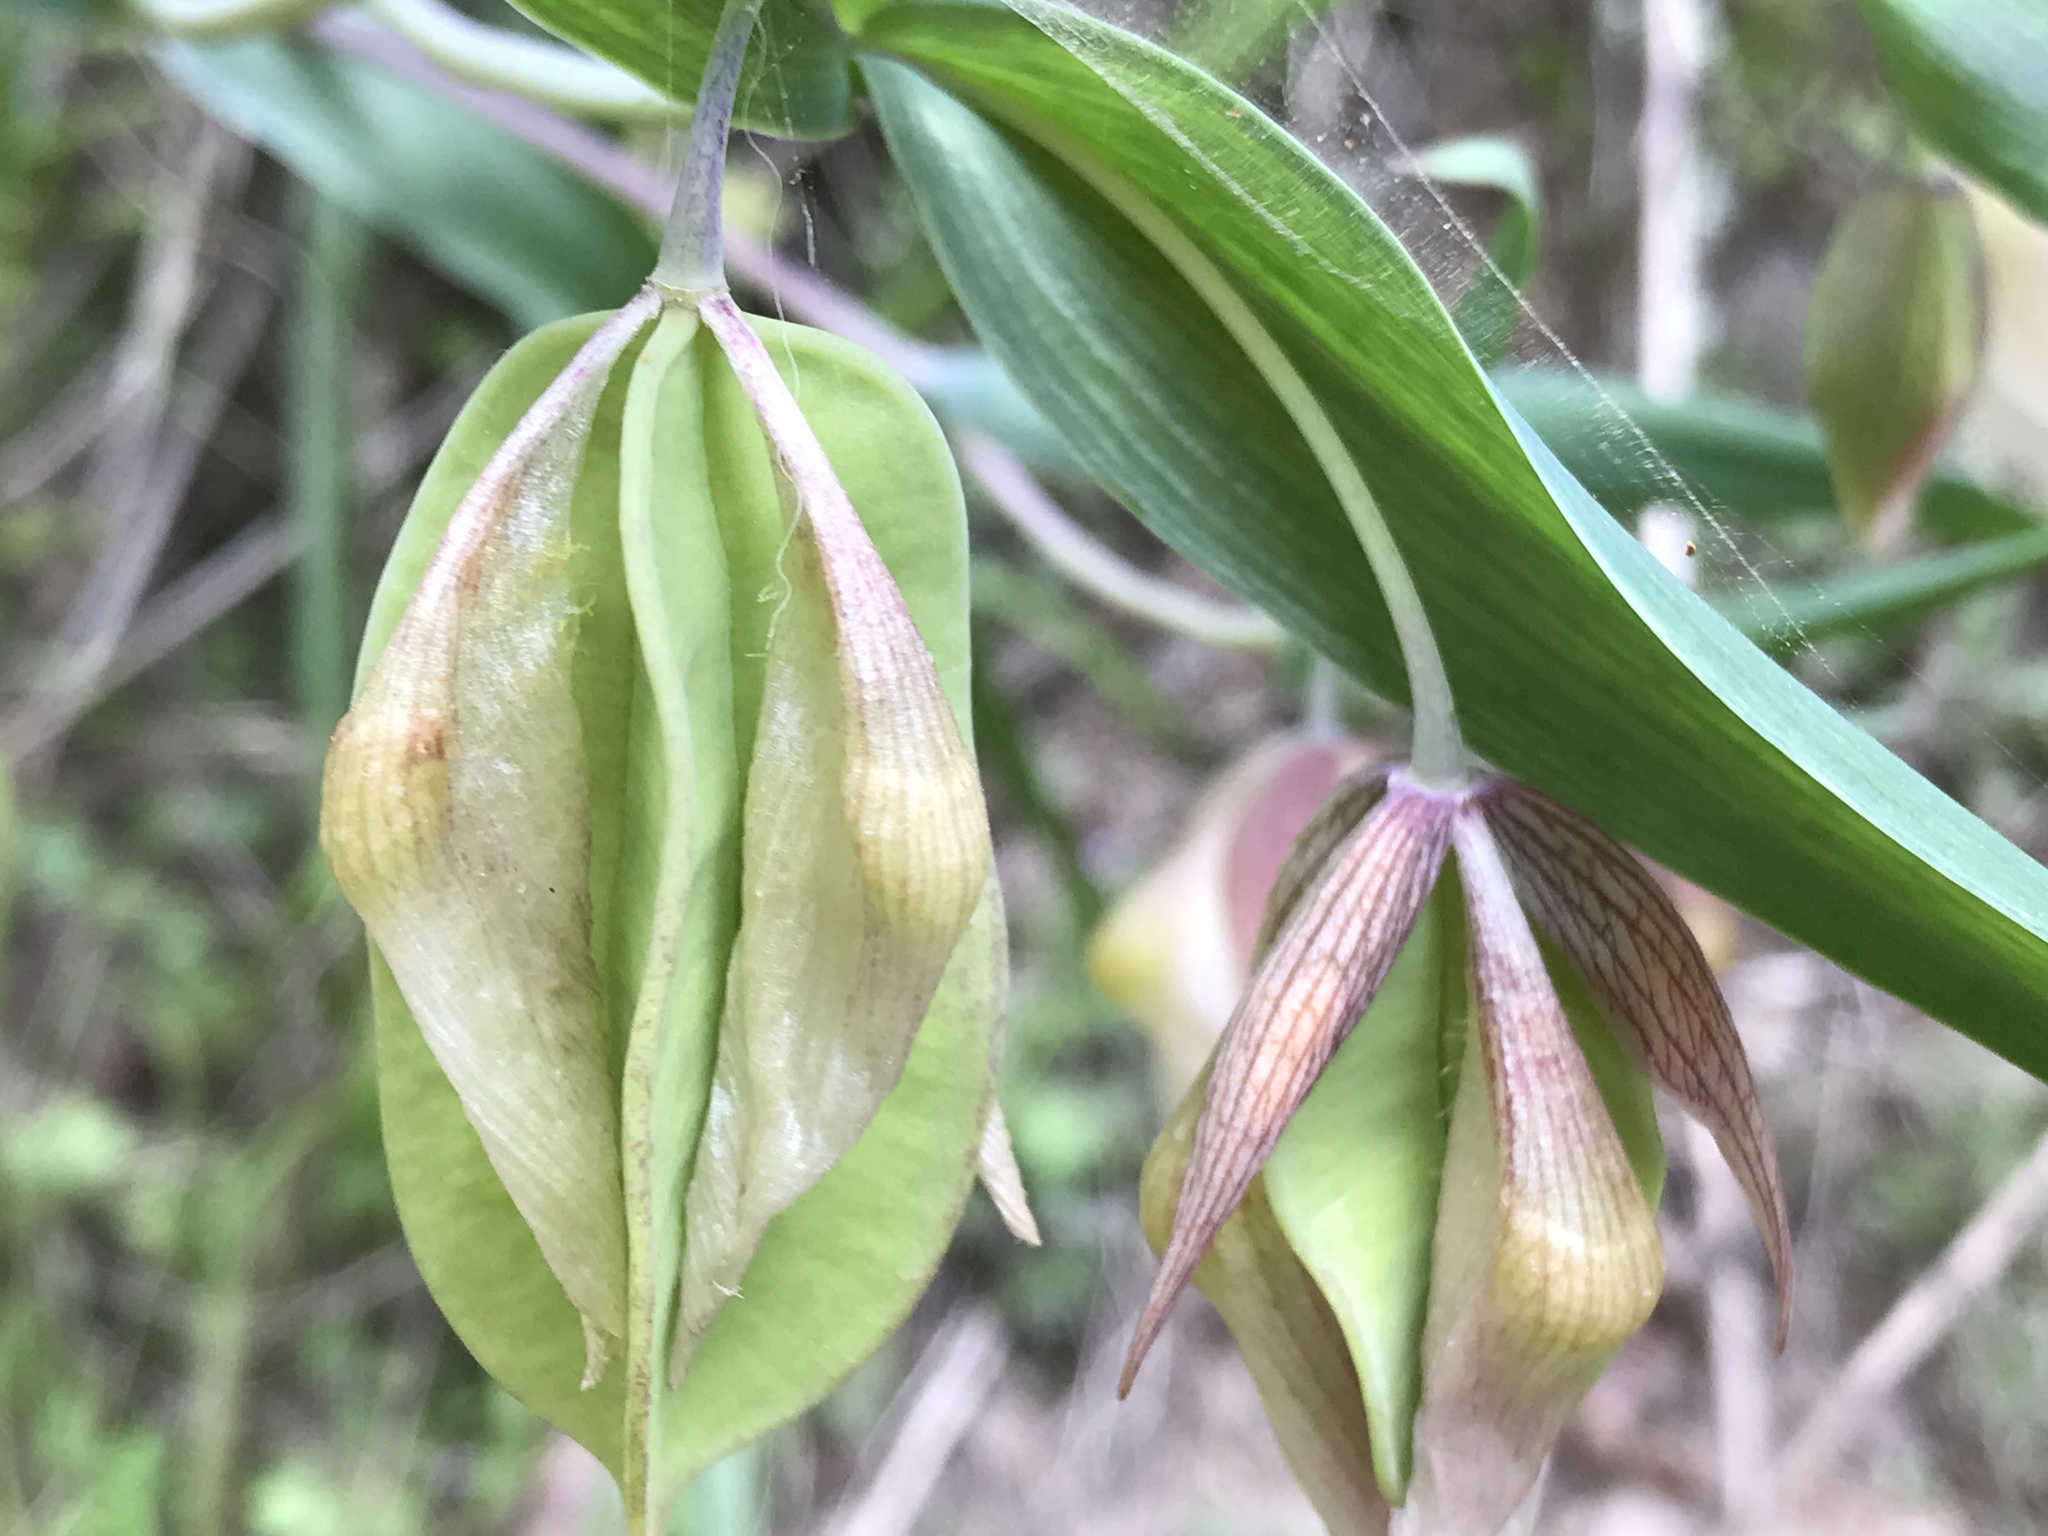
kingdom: Plantae
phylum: Tracheophyta
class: Liliopsida
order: Liliales
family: Liliaceae
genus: Calochortus
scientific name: Calochortus albus
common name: Fairy-lantern
